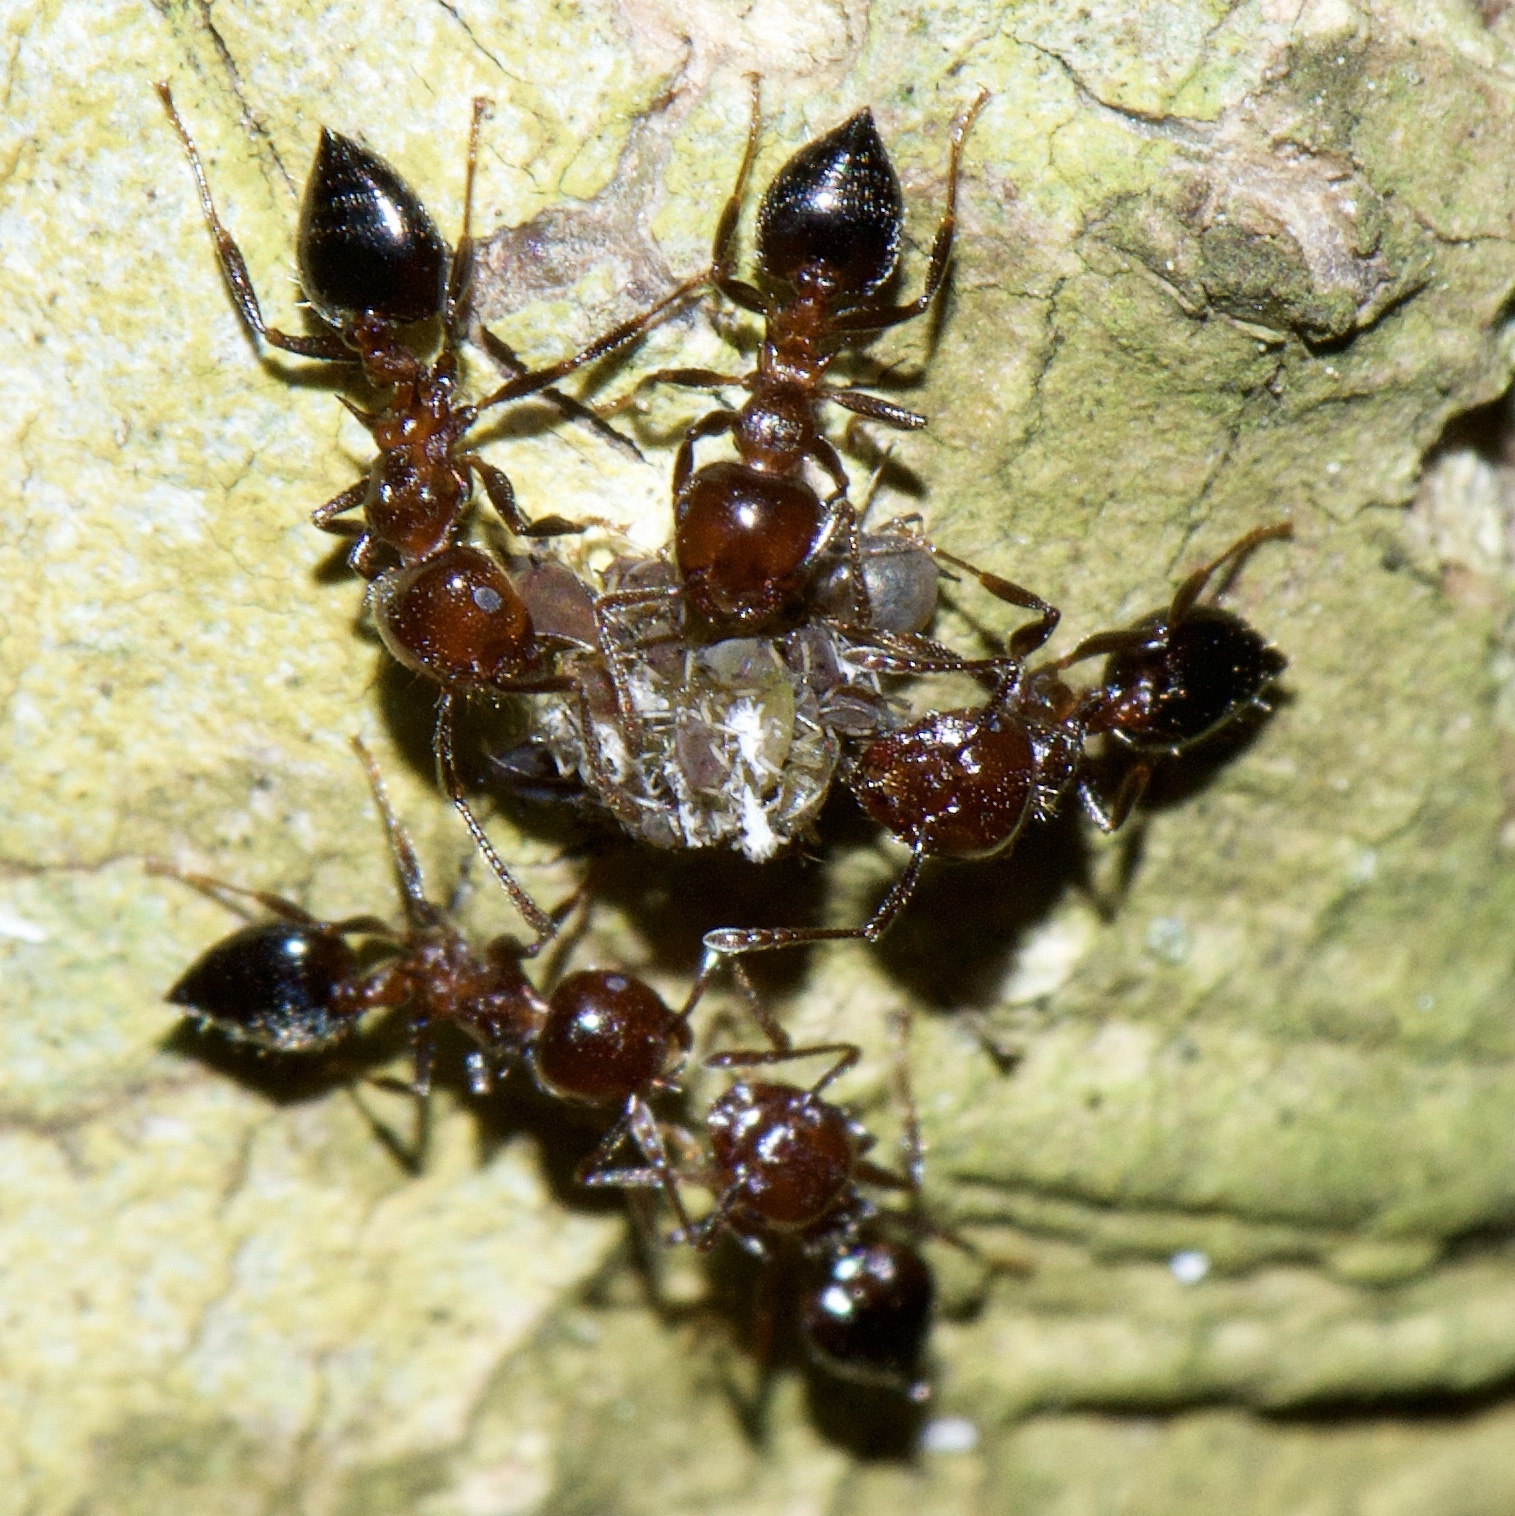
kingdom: Animalia
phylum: Arthropoda
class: Insecta
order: Hymenoptera
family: Formicidae
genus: Crematogaster
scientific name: Crematogaster pilosa
